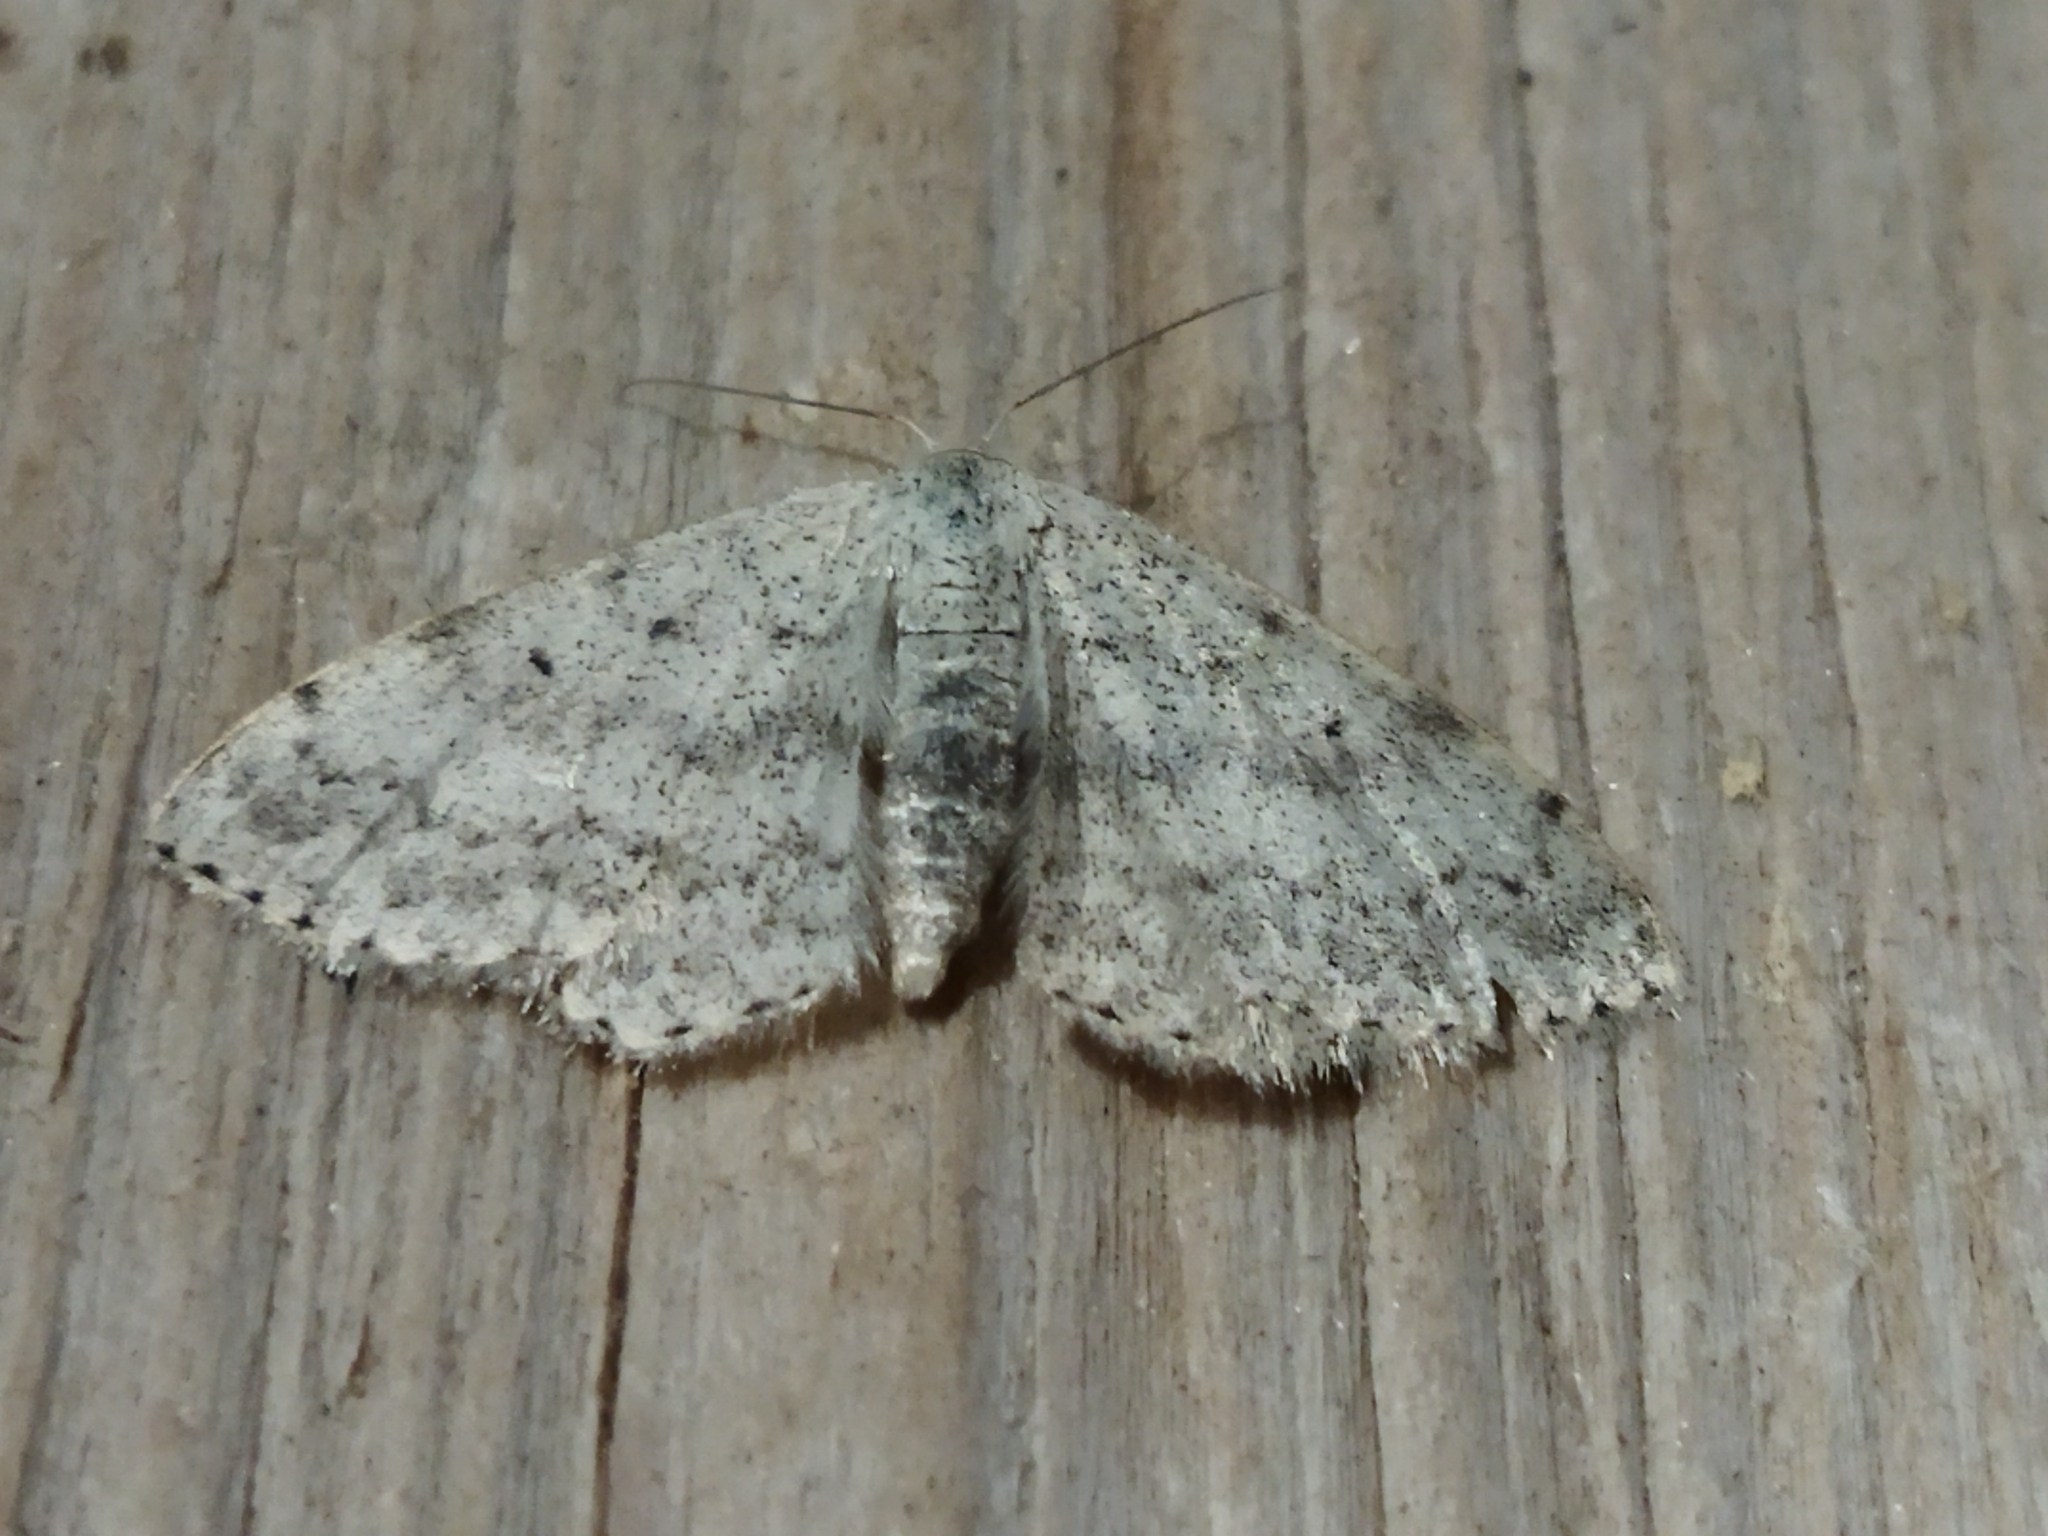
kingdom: Animalia
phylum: Arthropoda
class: Insecta
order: Lepidoptera
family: Geometridae
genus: Scopula
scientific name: Scopula marginepunctata
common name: Mullein wave
